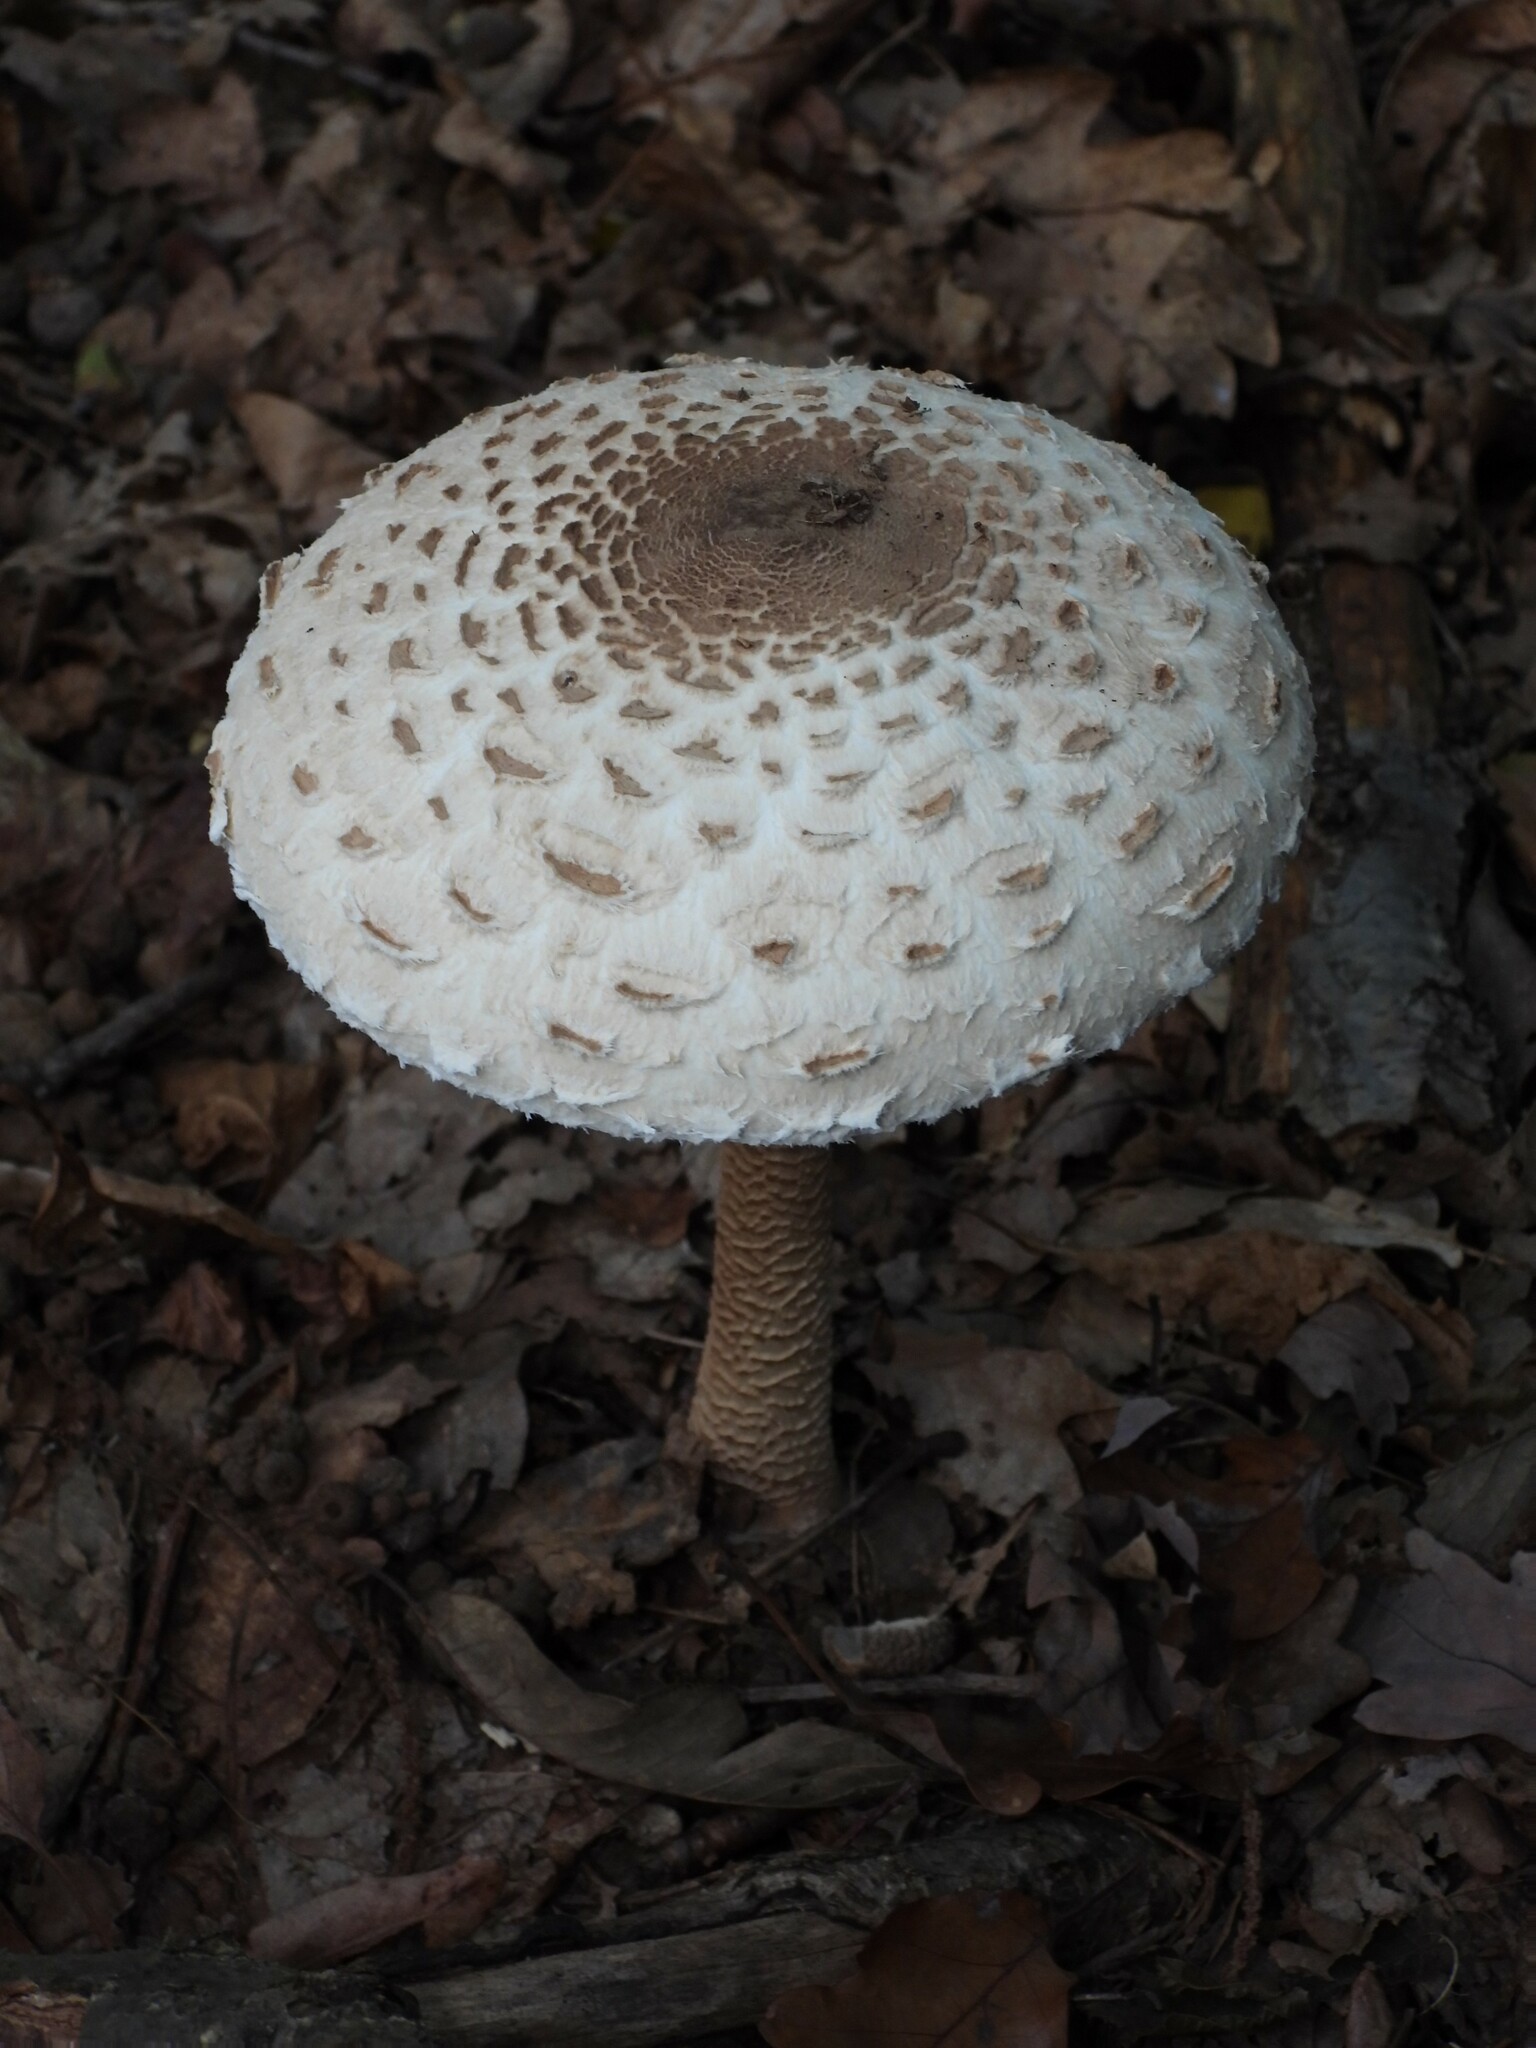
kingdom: Fungi
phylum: Basidiomycota
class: Agaricomycetes
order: Agaricales
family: Agaricaceae
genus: Macrolepiota
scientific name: Macrolepiota procera
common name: Parasol
